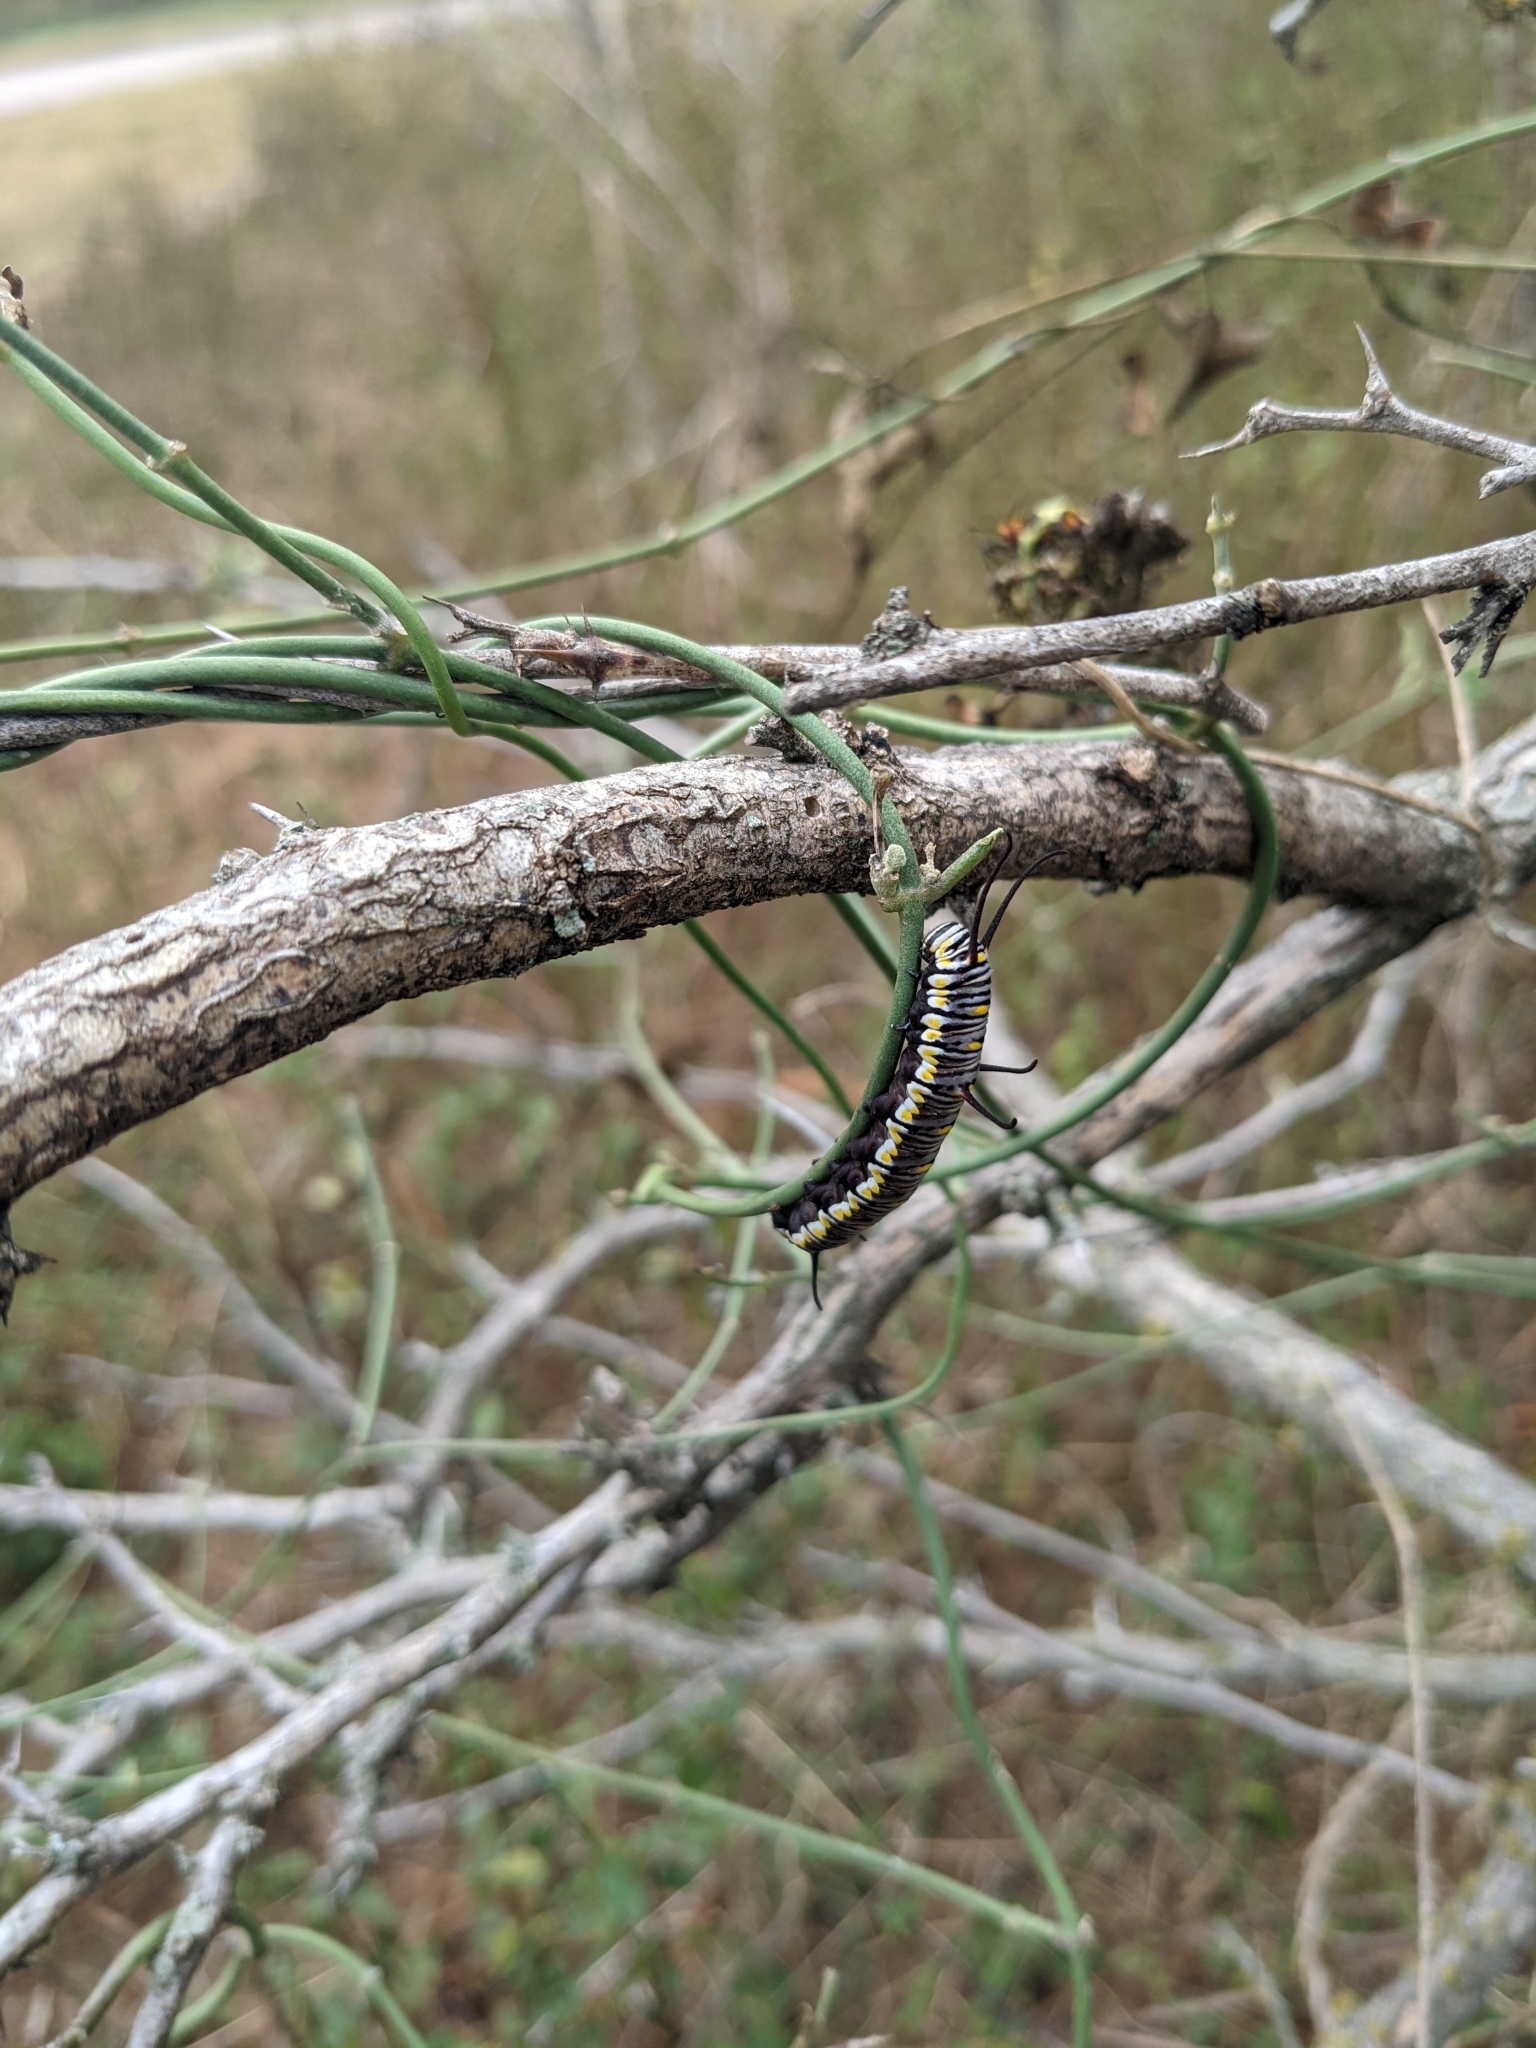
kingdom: Animalia
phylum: Arthropoda
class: Insecta
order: Lepidoptera
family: Nymphalidae
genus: Danaus
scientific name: Danaus gilippus
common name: Queen
